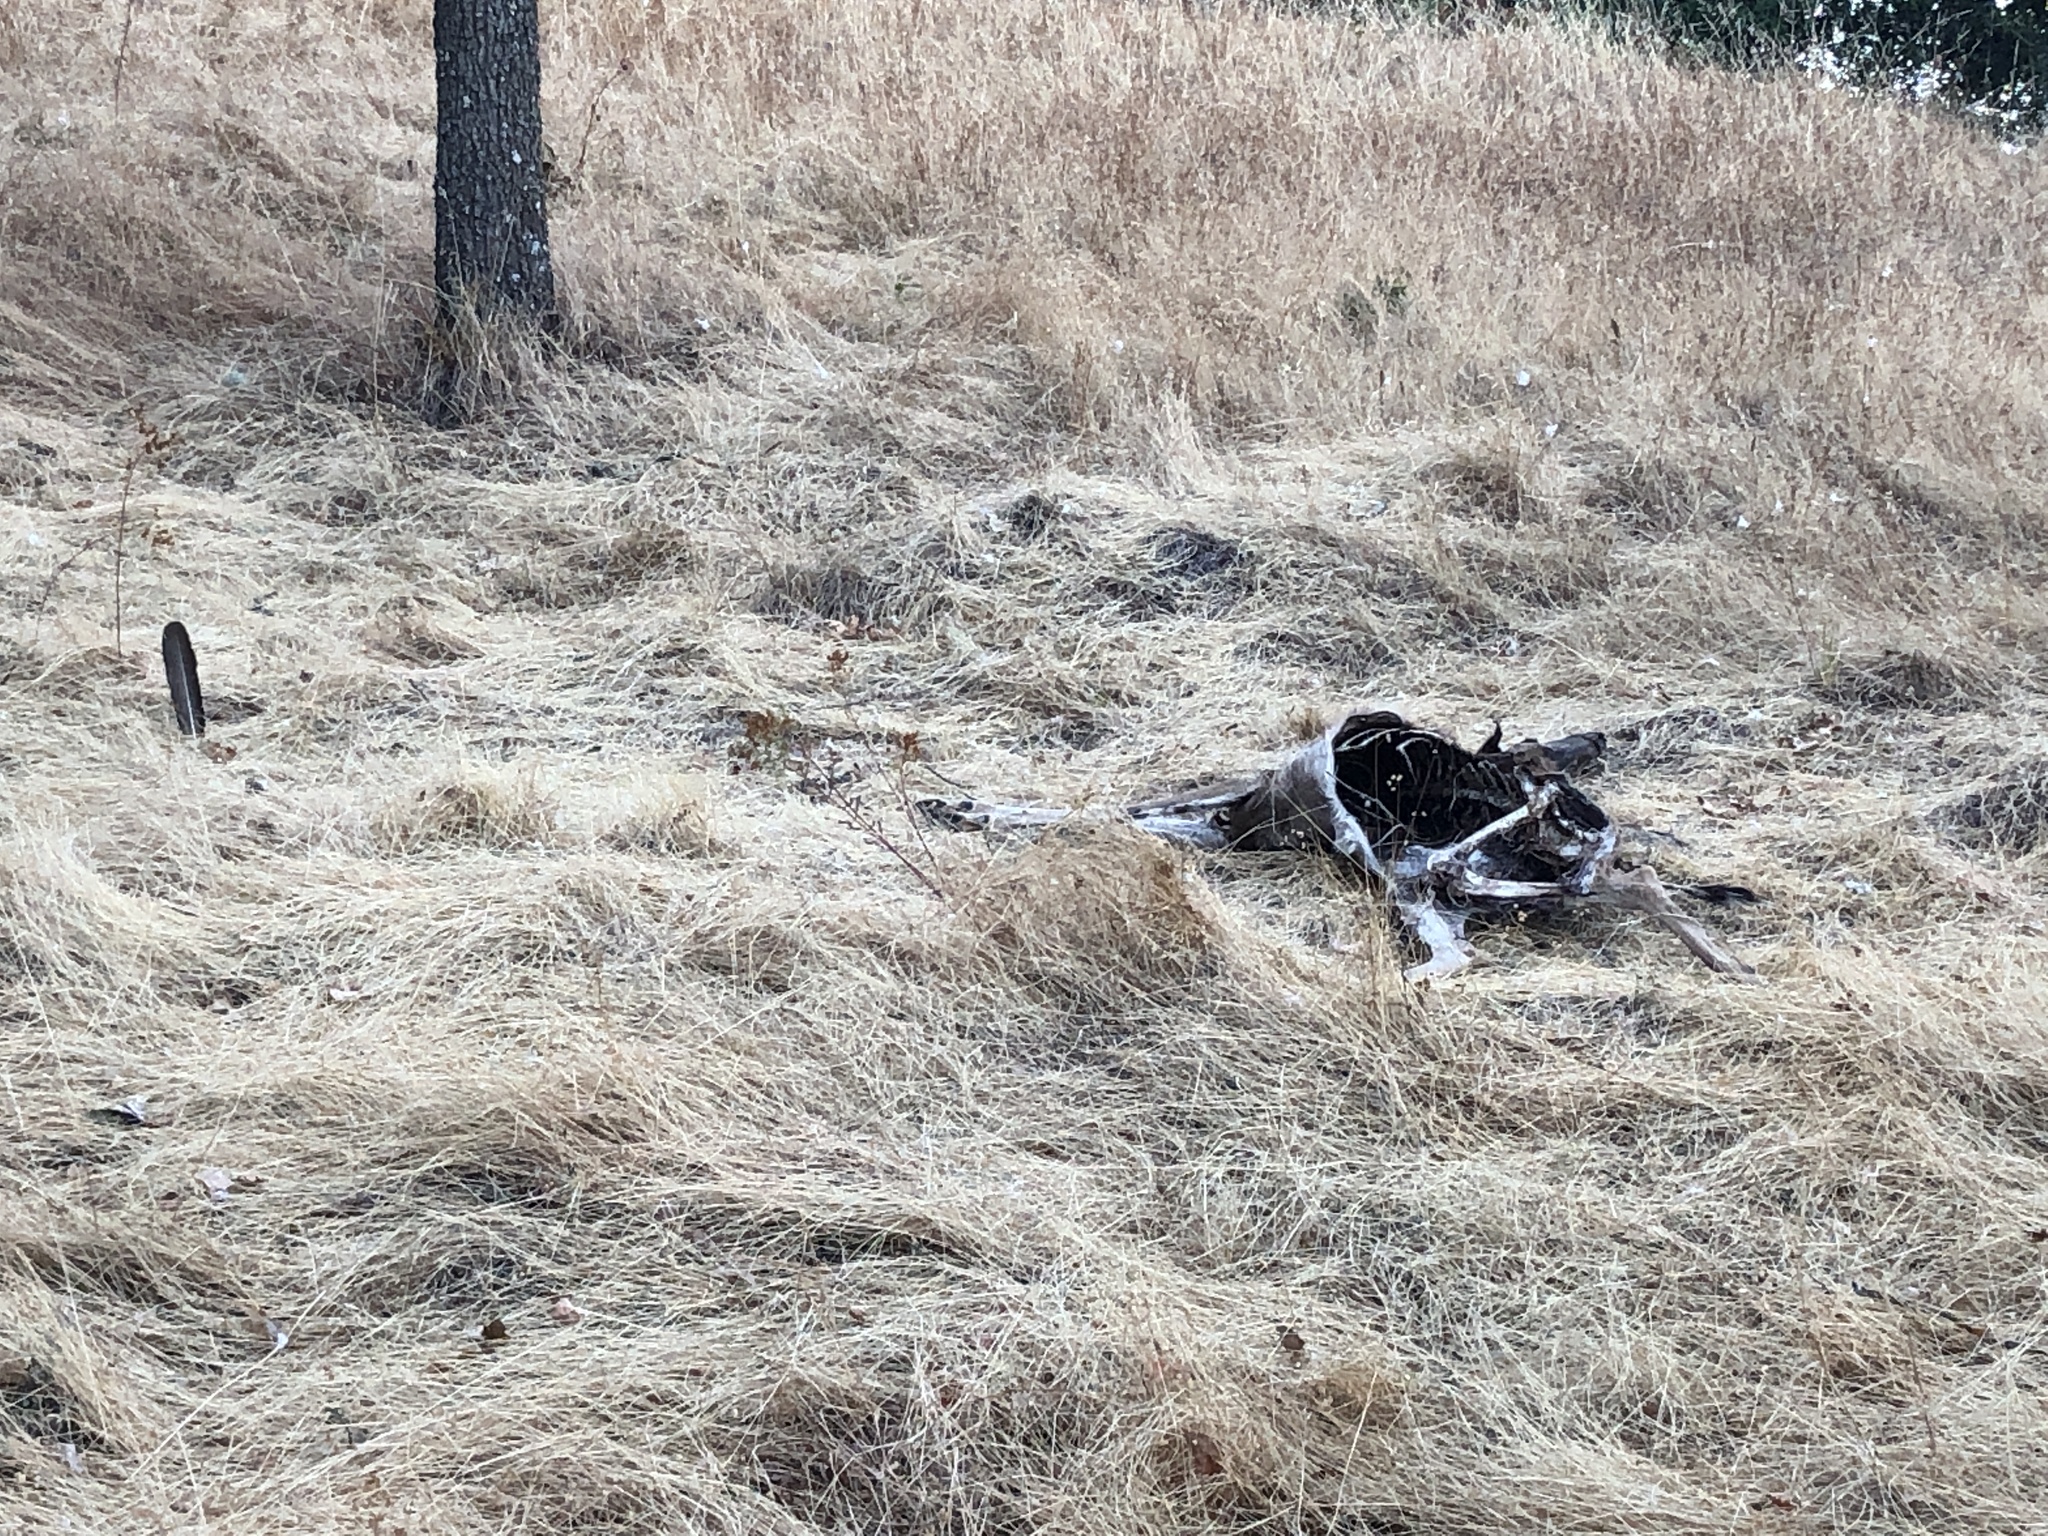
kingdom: Animalia
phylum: Chordata
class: Mammalia
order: Artiodactyla
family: Cervidae
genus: Odocoileus
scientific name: Odocoileus hemionus
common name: Mule deer
